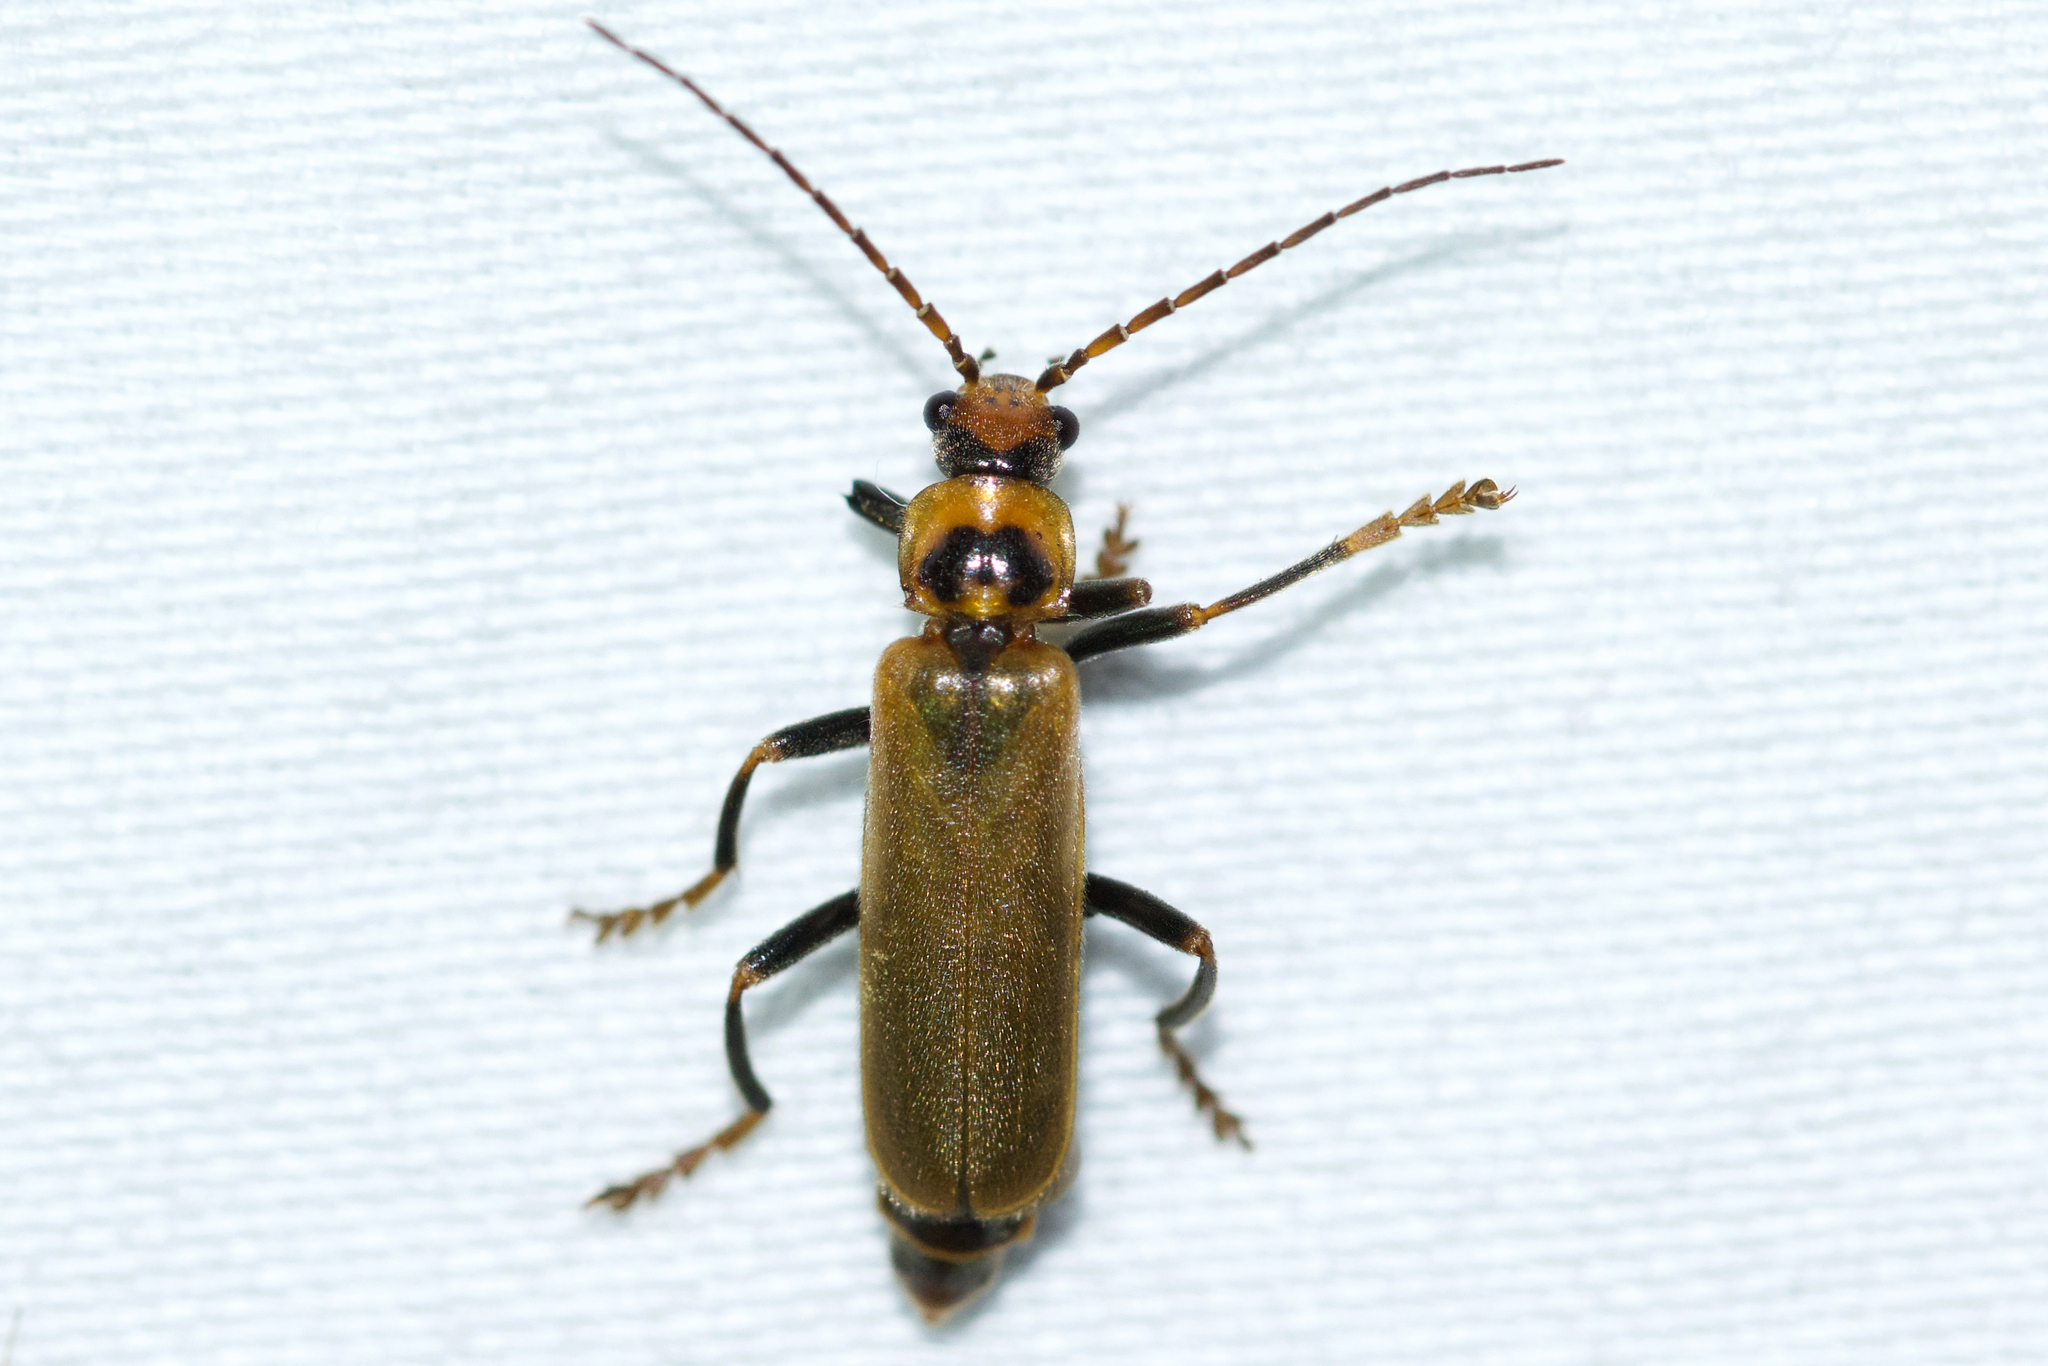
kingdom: Animalia
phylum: Arthropoda
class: Insecta
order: Coleoptera
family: Cantharidae
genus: Cantharis
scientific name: Cantharis rufa
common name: Red-spotted soldier beetle
